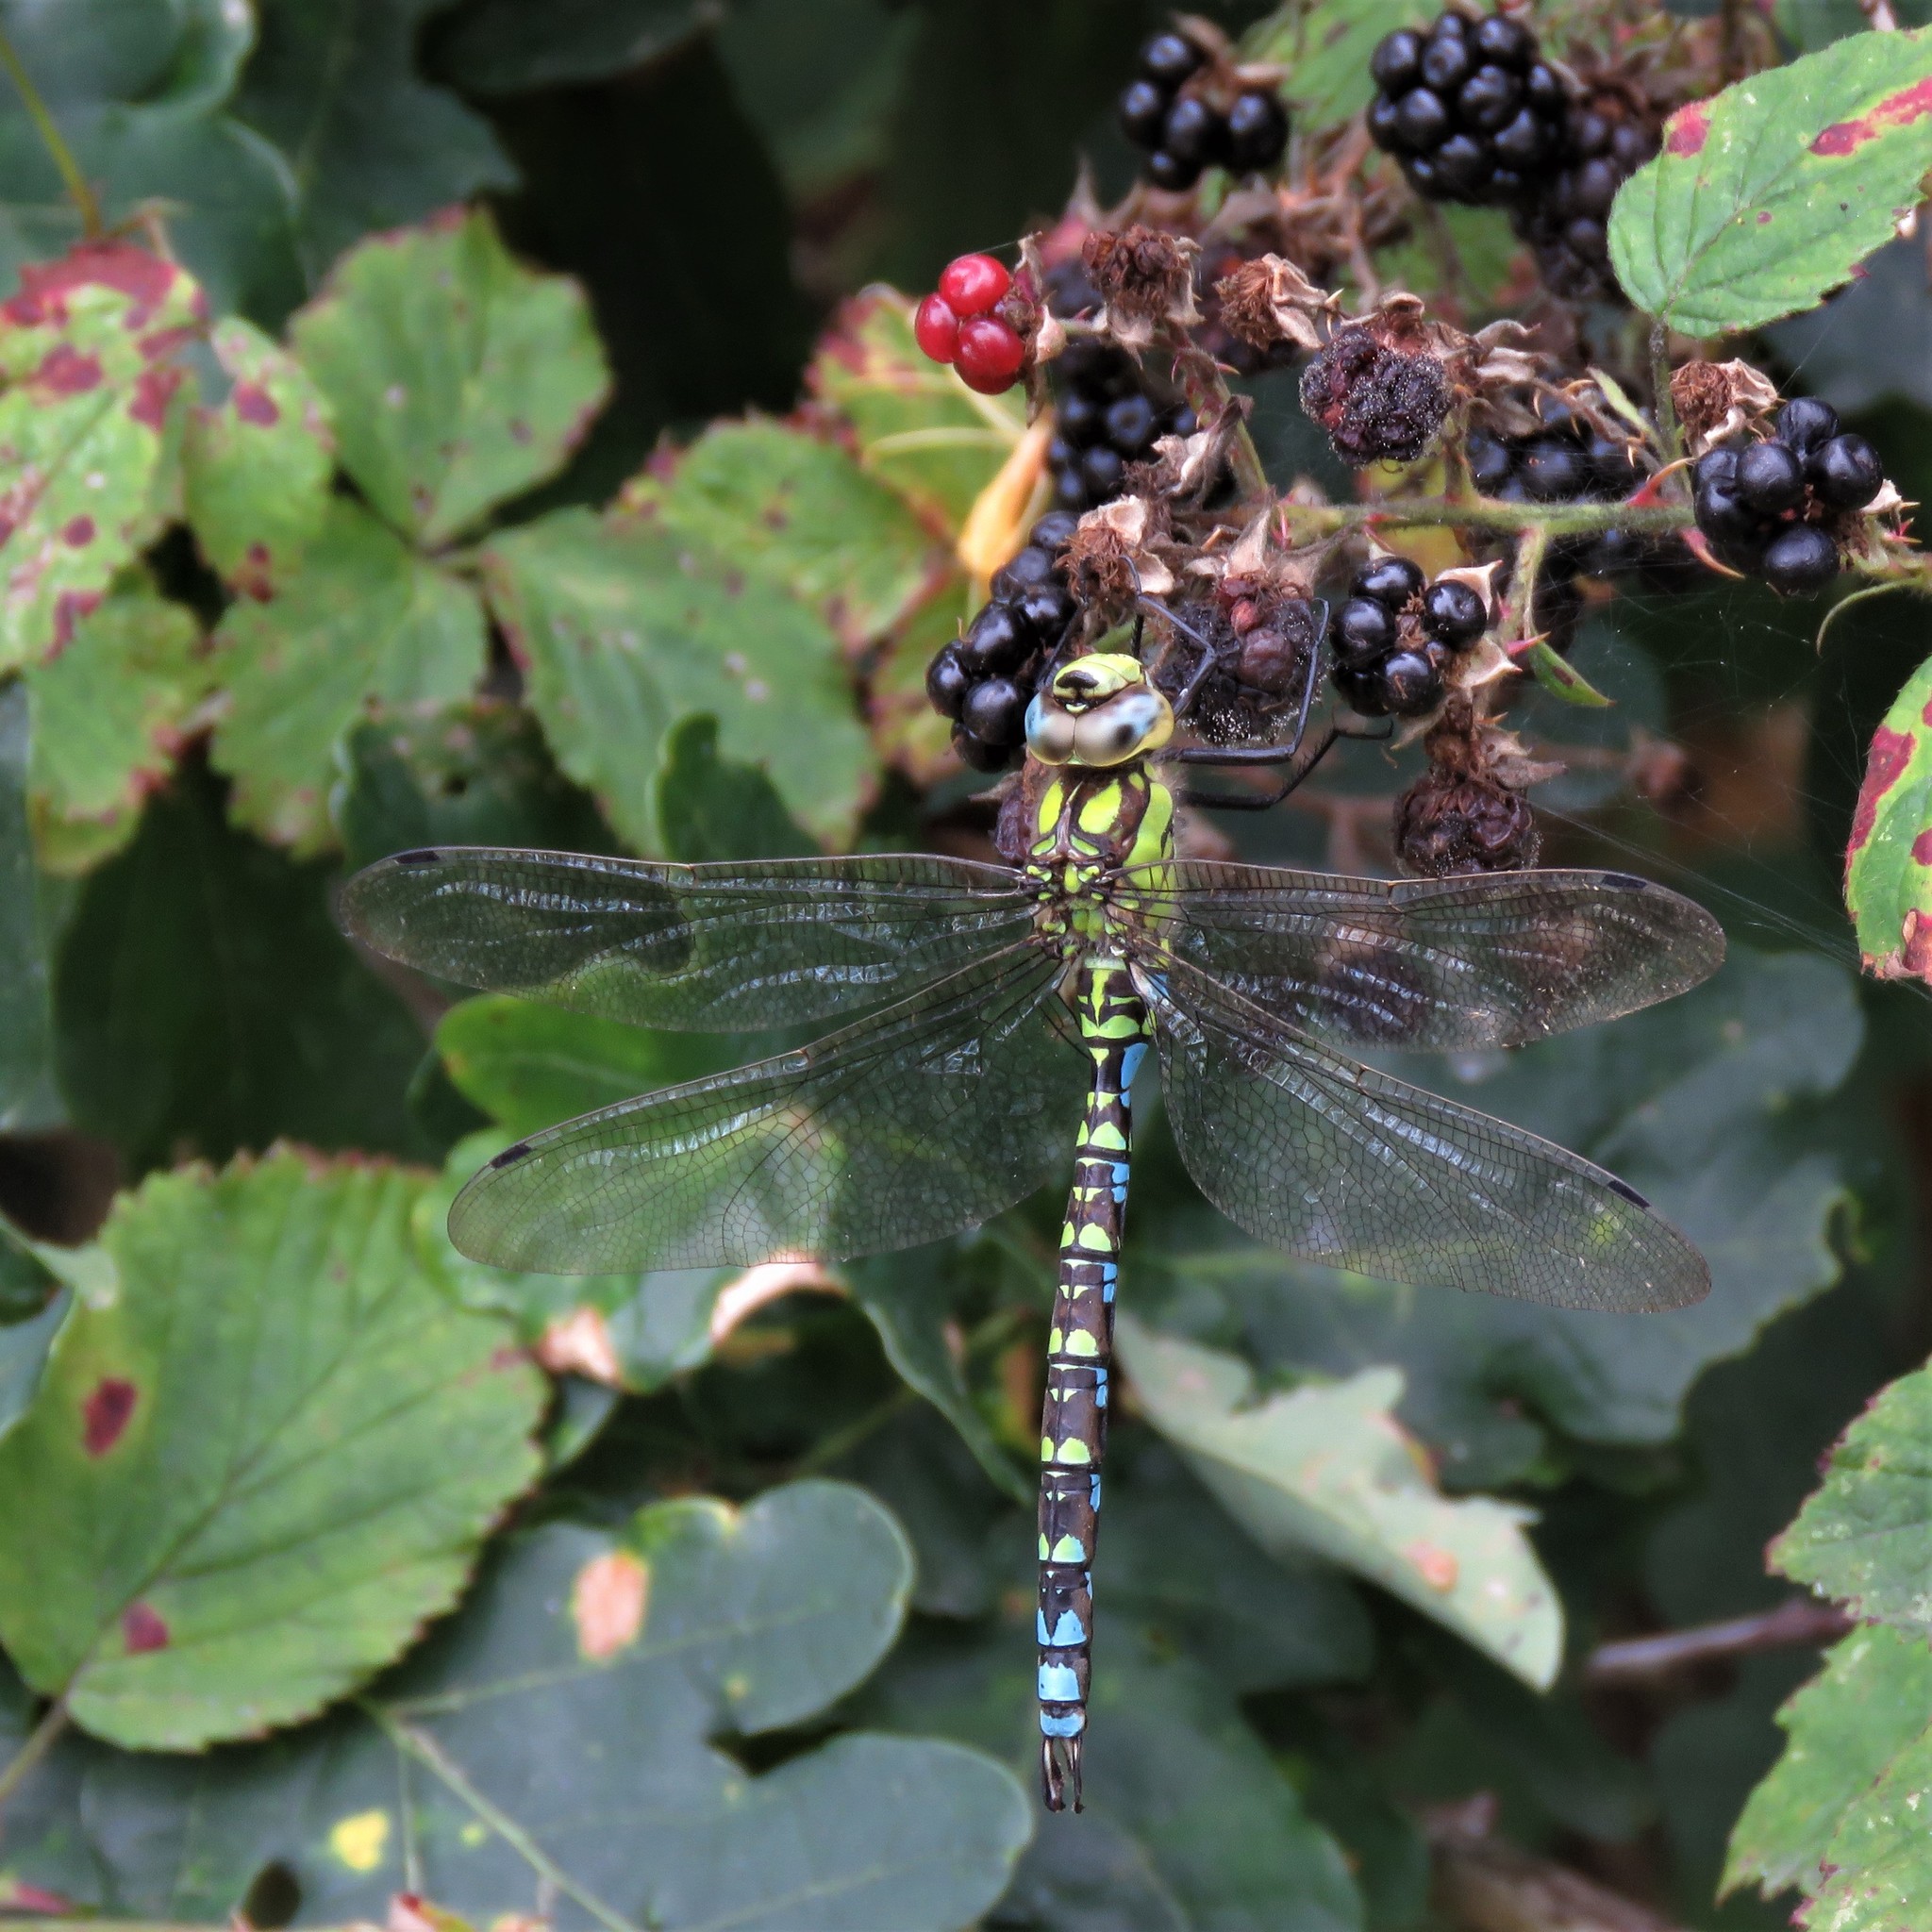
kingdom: Animalia
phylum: Arthropoda
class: Insecta
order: Odonata
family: Aeshnidae
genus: Aeshna
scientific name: Aeshna cyanea
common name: Southern hawker
